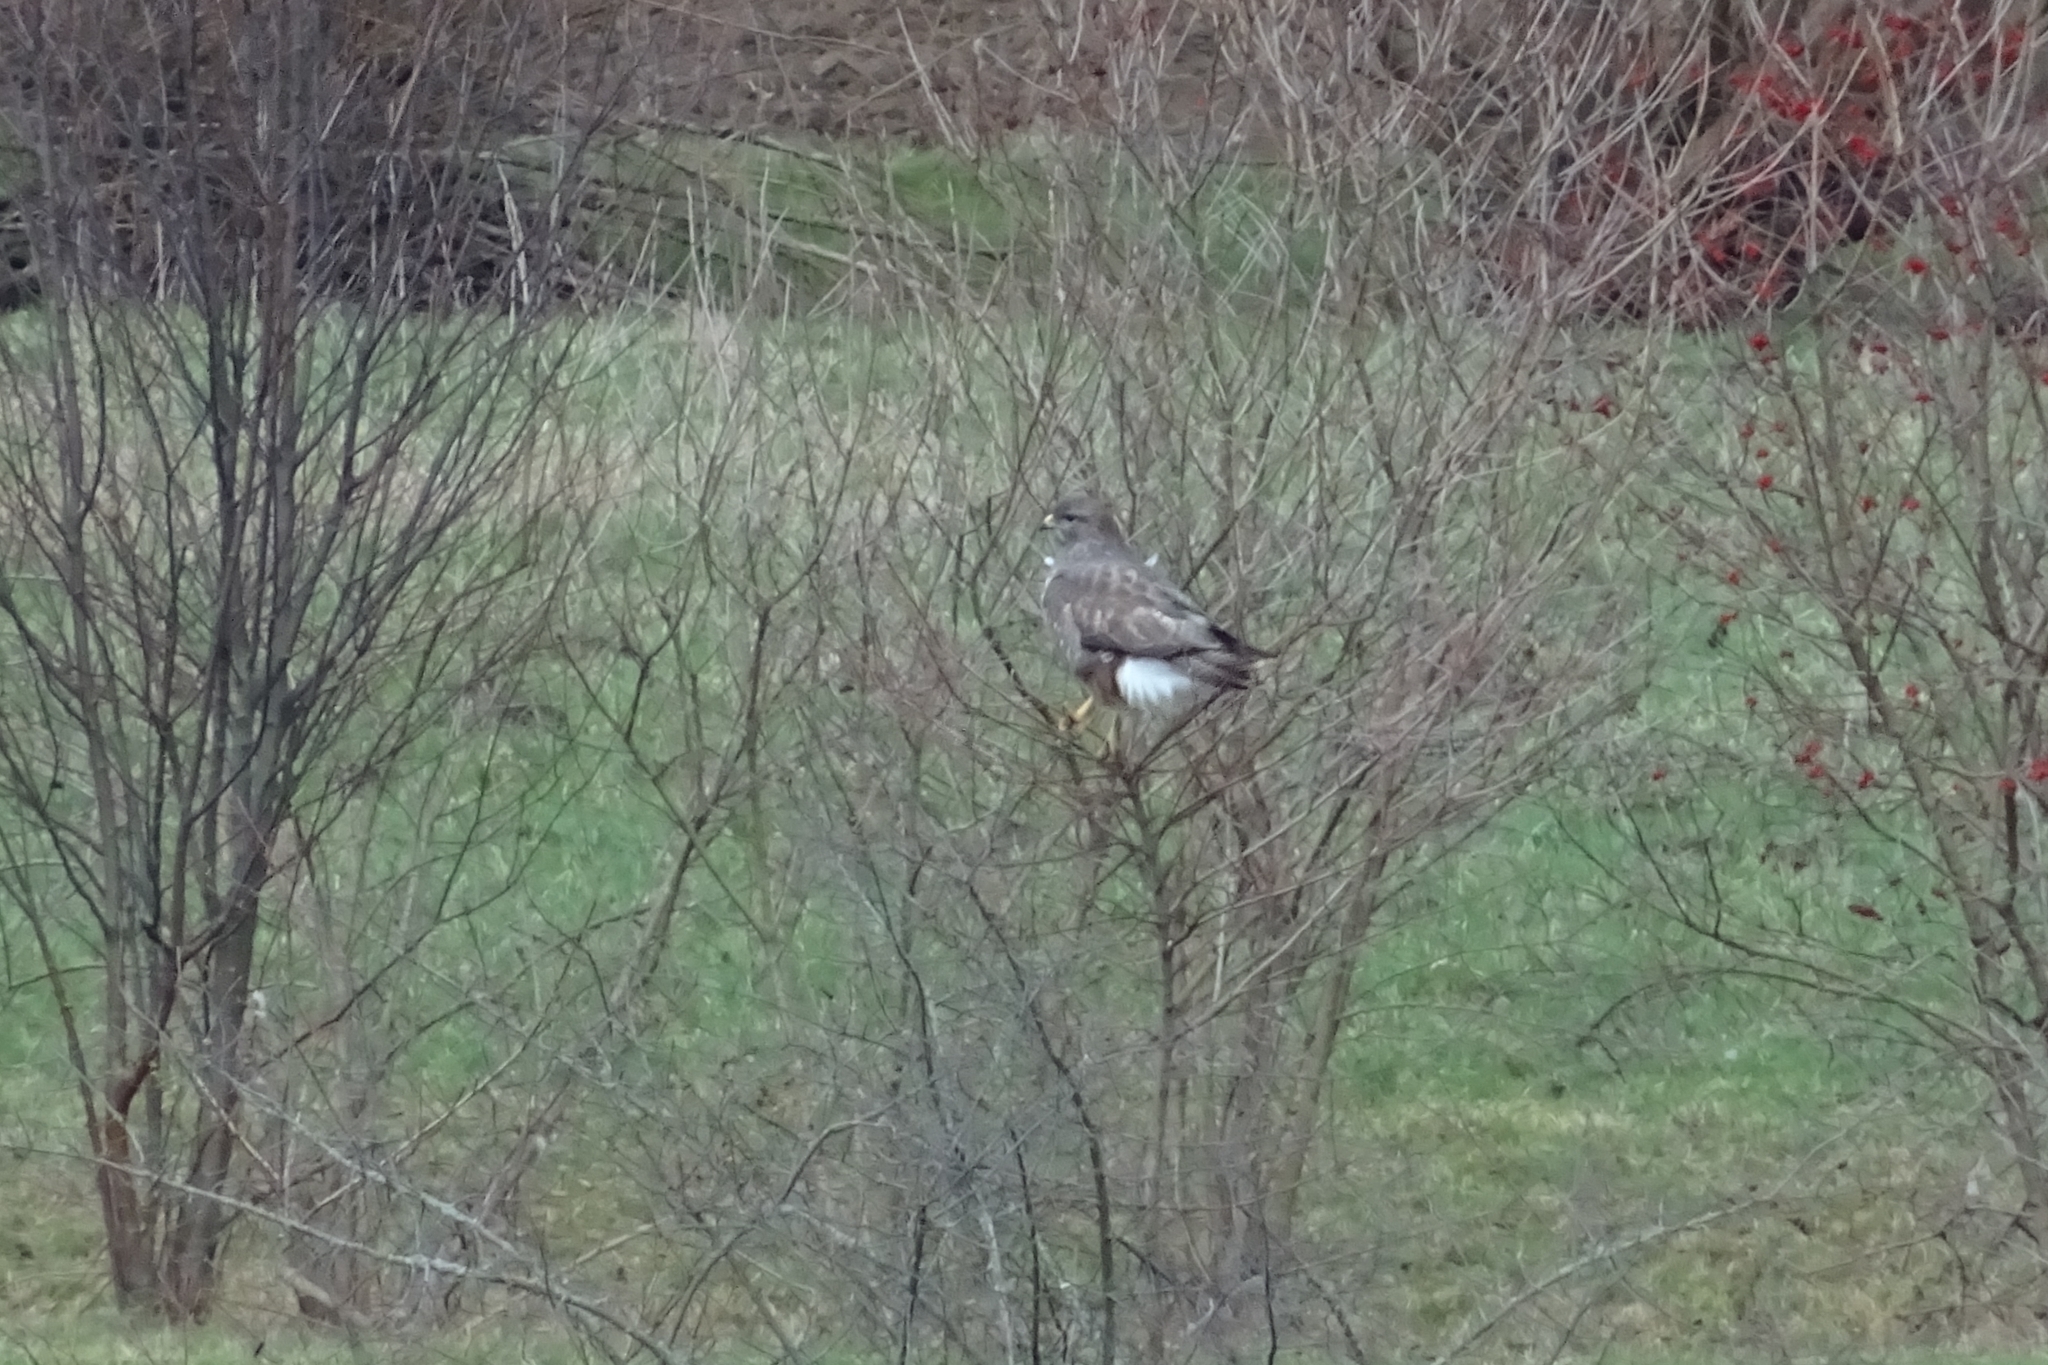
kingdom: Animalia
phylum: Chordata
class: Aves
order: Accipitriformes
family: Accipitridae
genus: Buteo
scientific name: Buteo buteo
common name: Common buzzard
